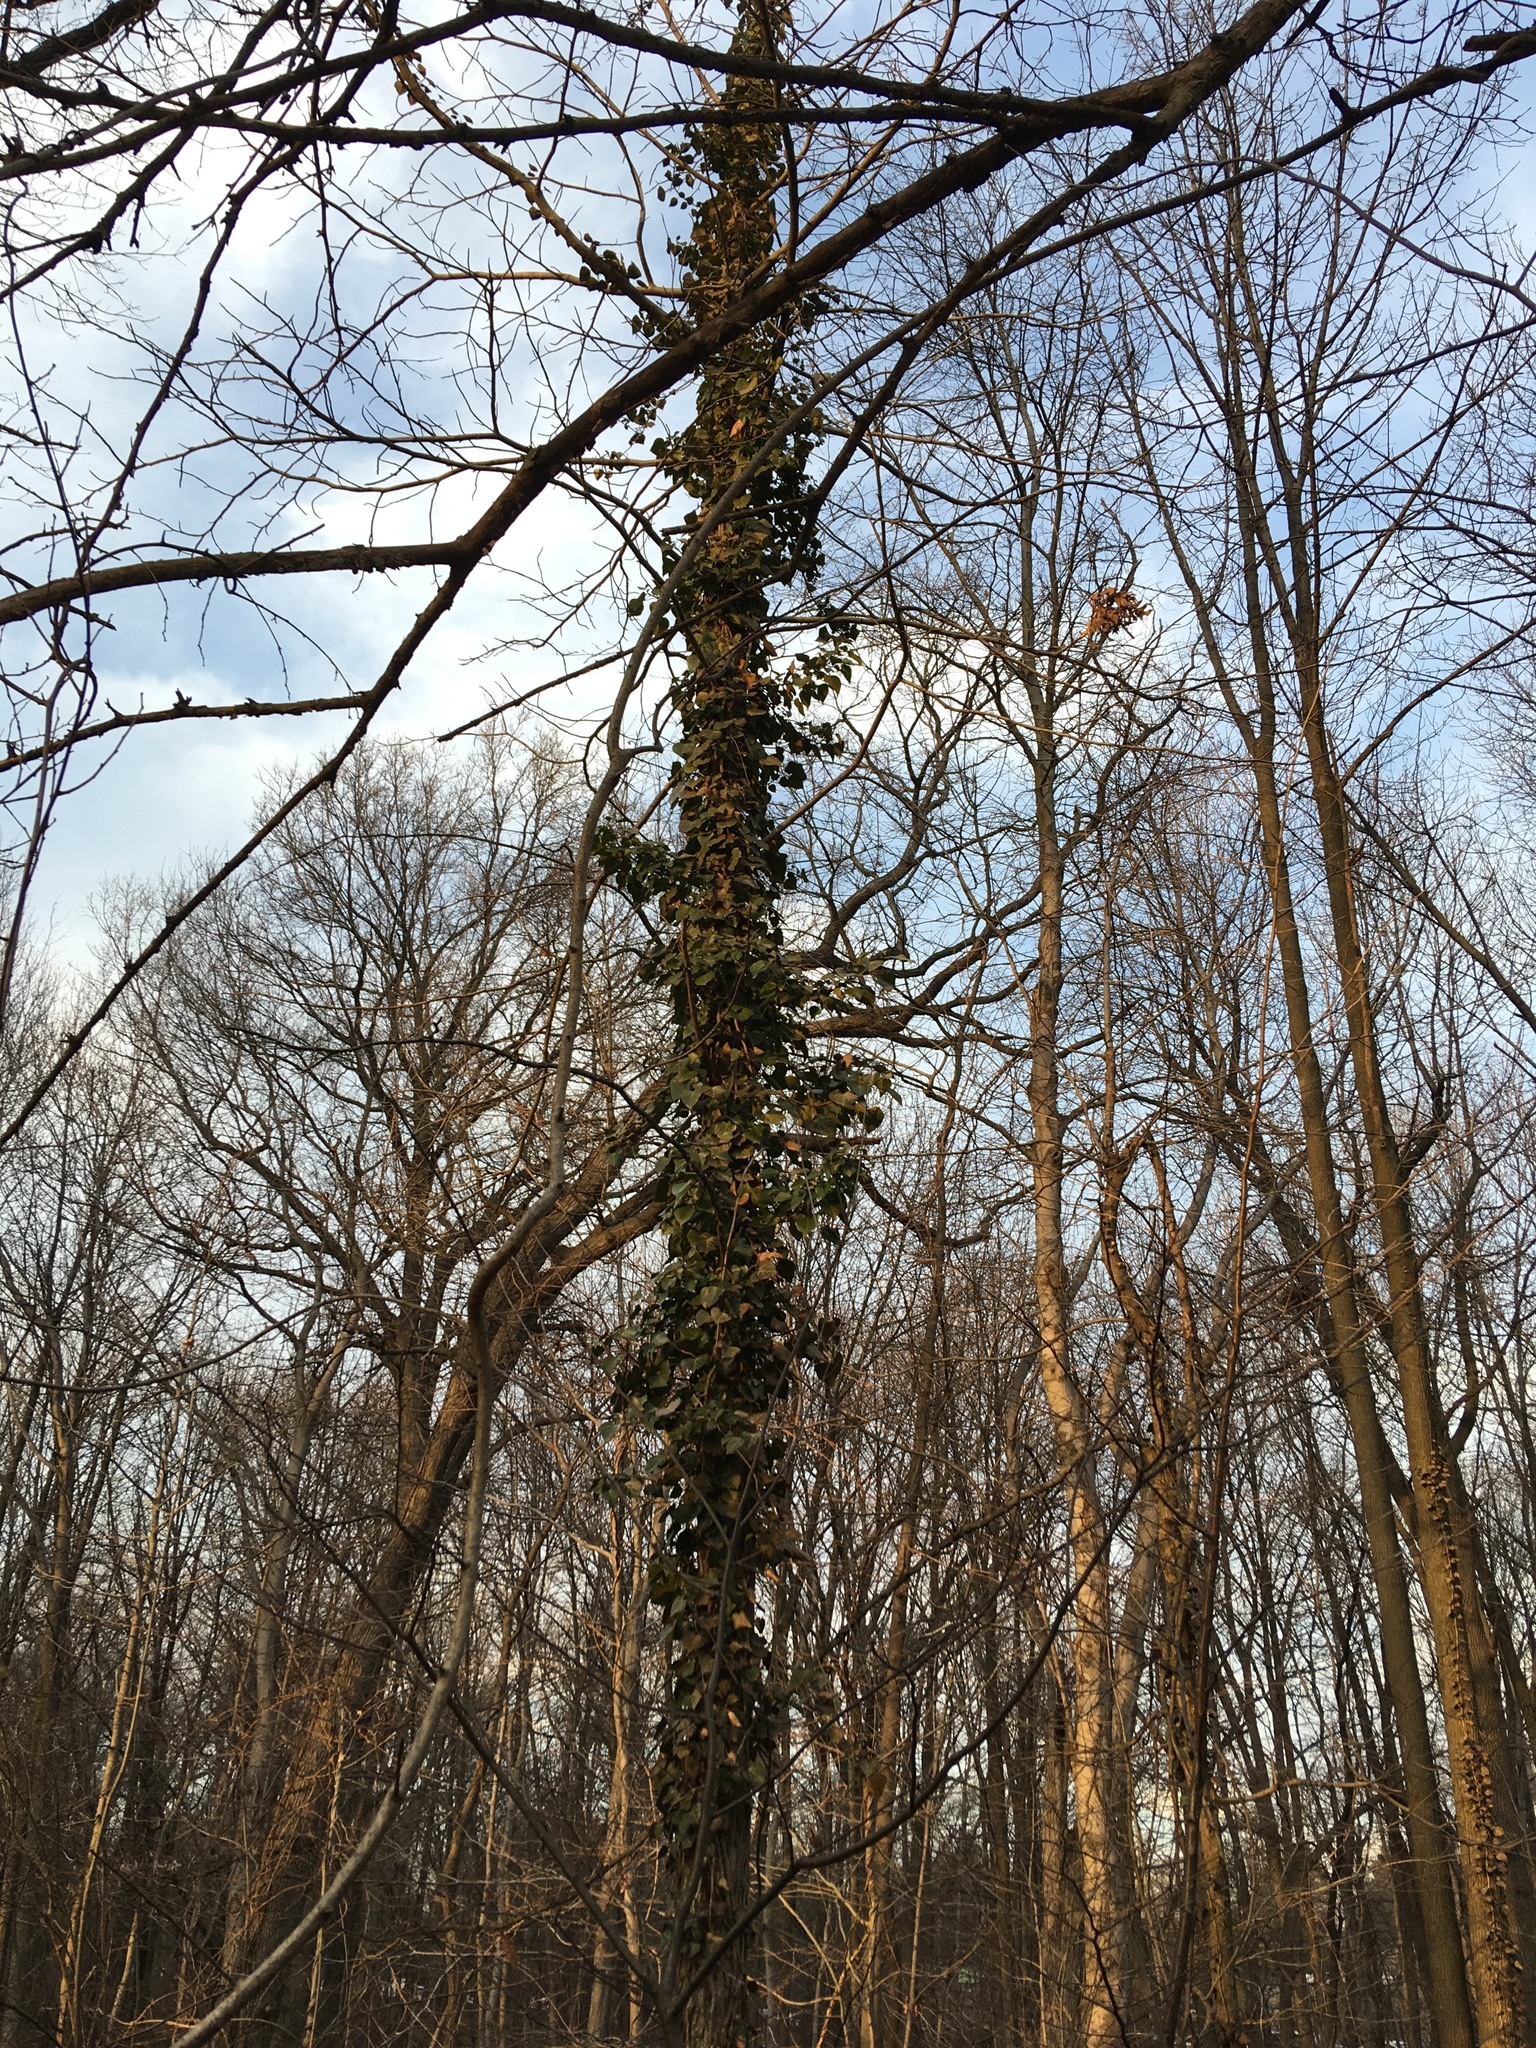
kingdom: Plantae
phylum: Tracheophyta
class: Magnoliopsida
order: Apiales
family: Araliaceae
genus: Hedera
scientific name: Hedera helix
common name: Ivy
